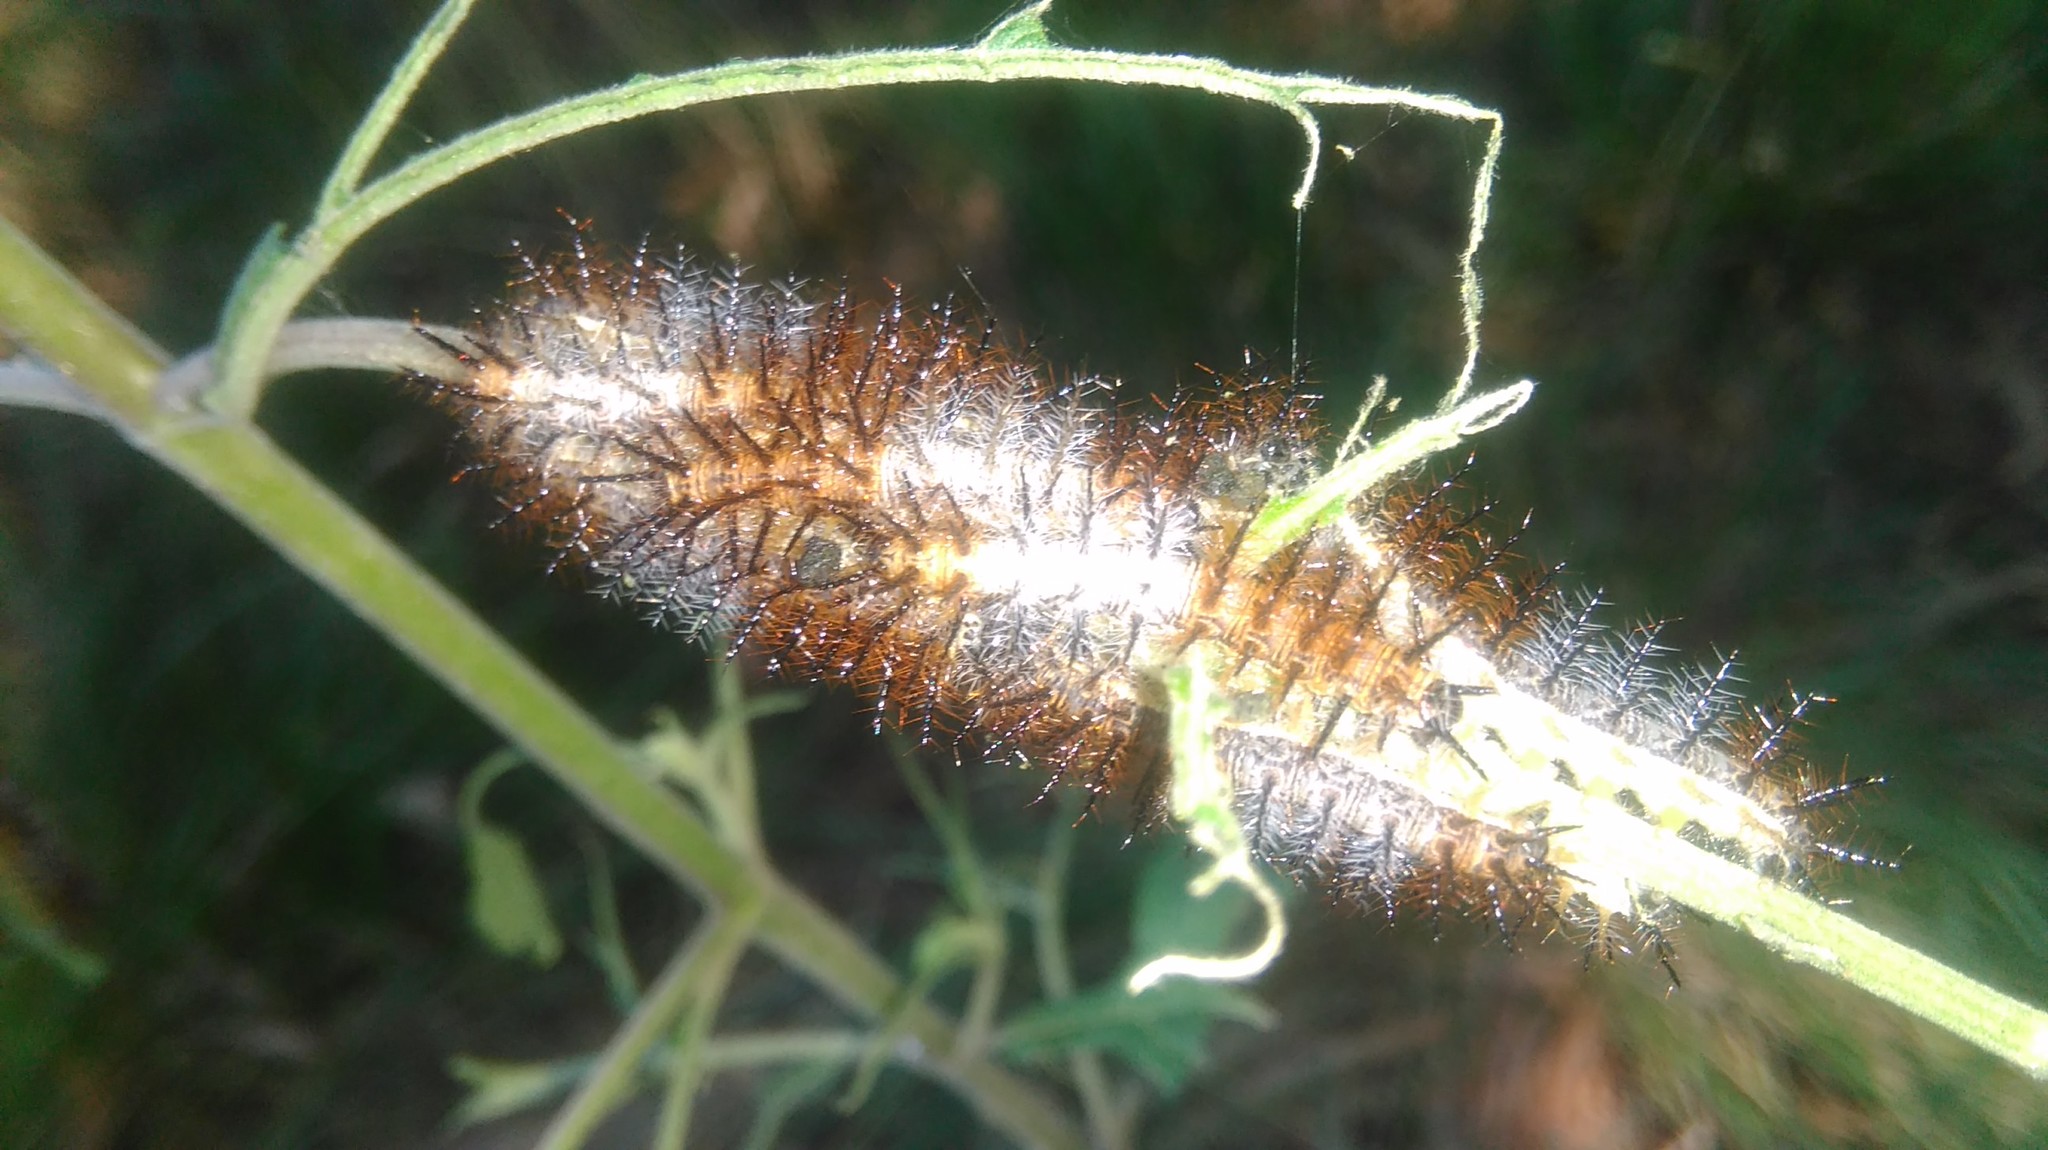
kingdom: Animalia
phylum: Arthropoda
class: Insecta
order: Lepidoptera
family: Nymphalidae
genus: Actinote
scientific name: Actinote pellenea
